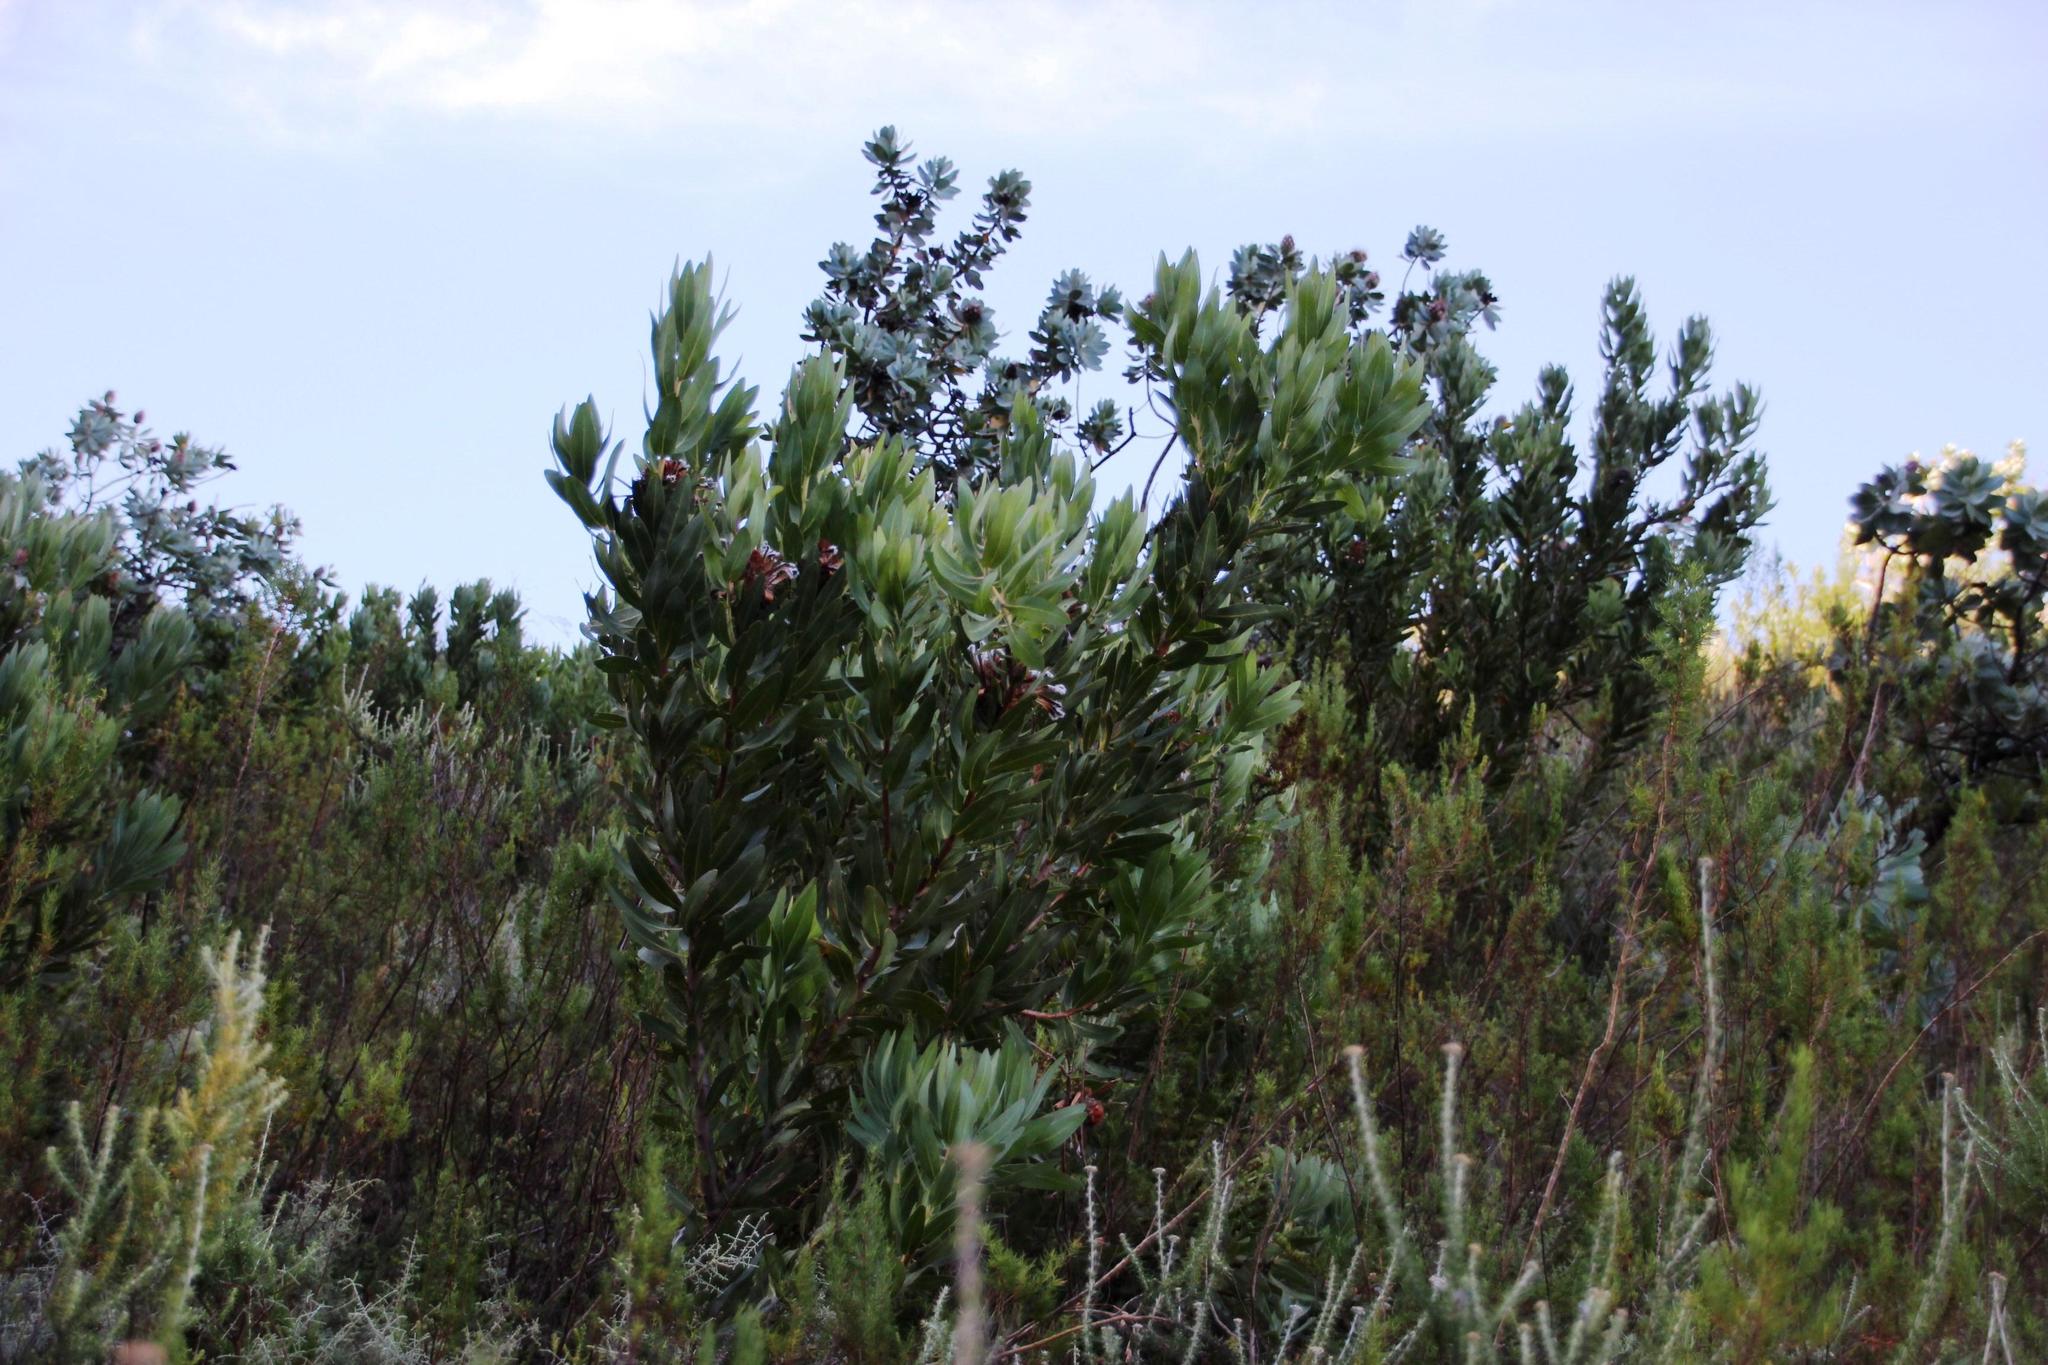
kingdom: Plantae
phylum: Tracheophyta
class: Magnoliopsida
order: Proteales
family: Proteaceae
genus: Protea
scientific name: Protea laurifolia
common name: Grey-leaf sugarbsh
